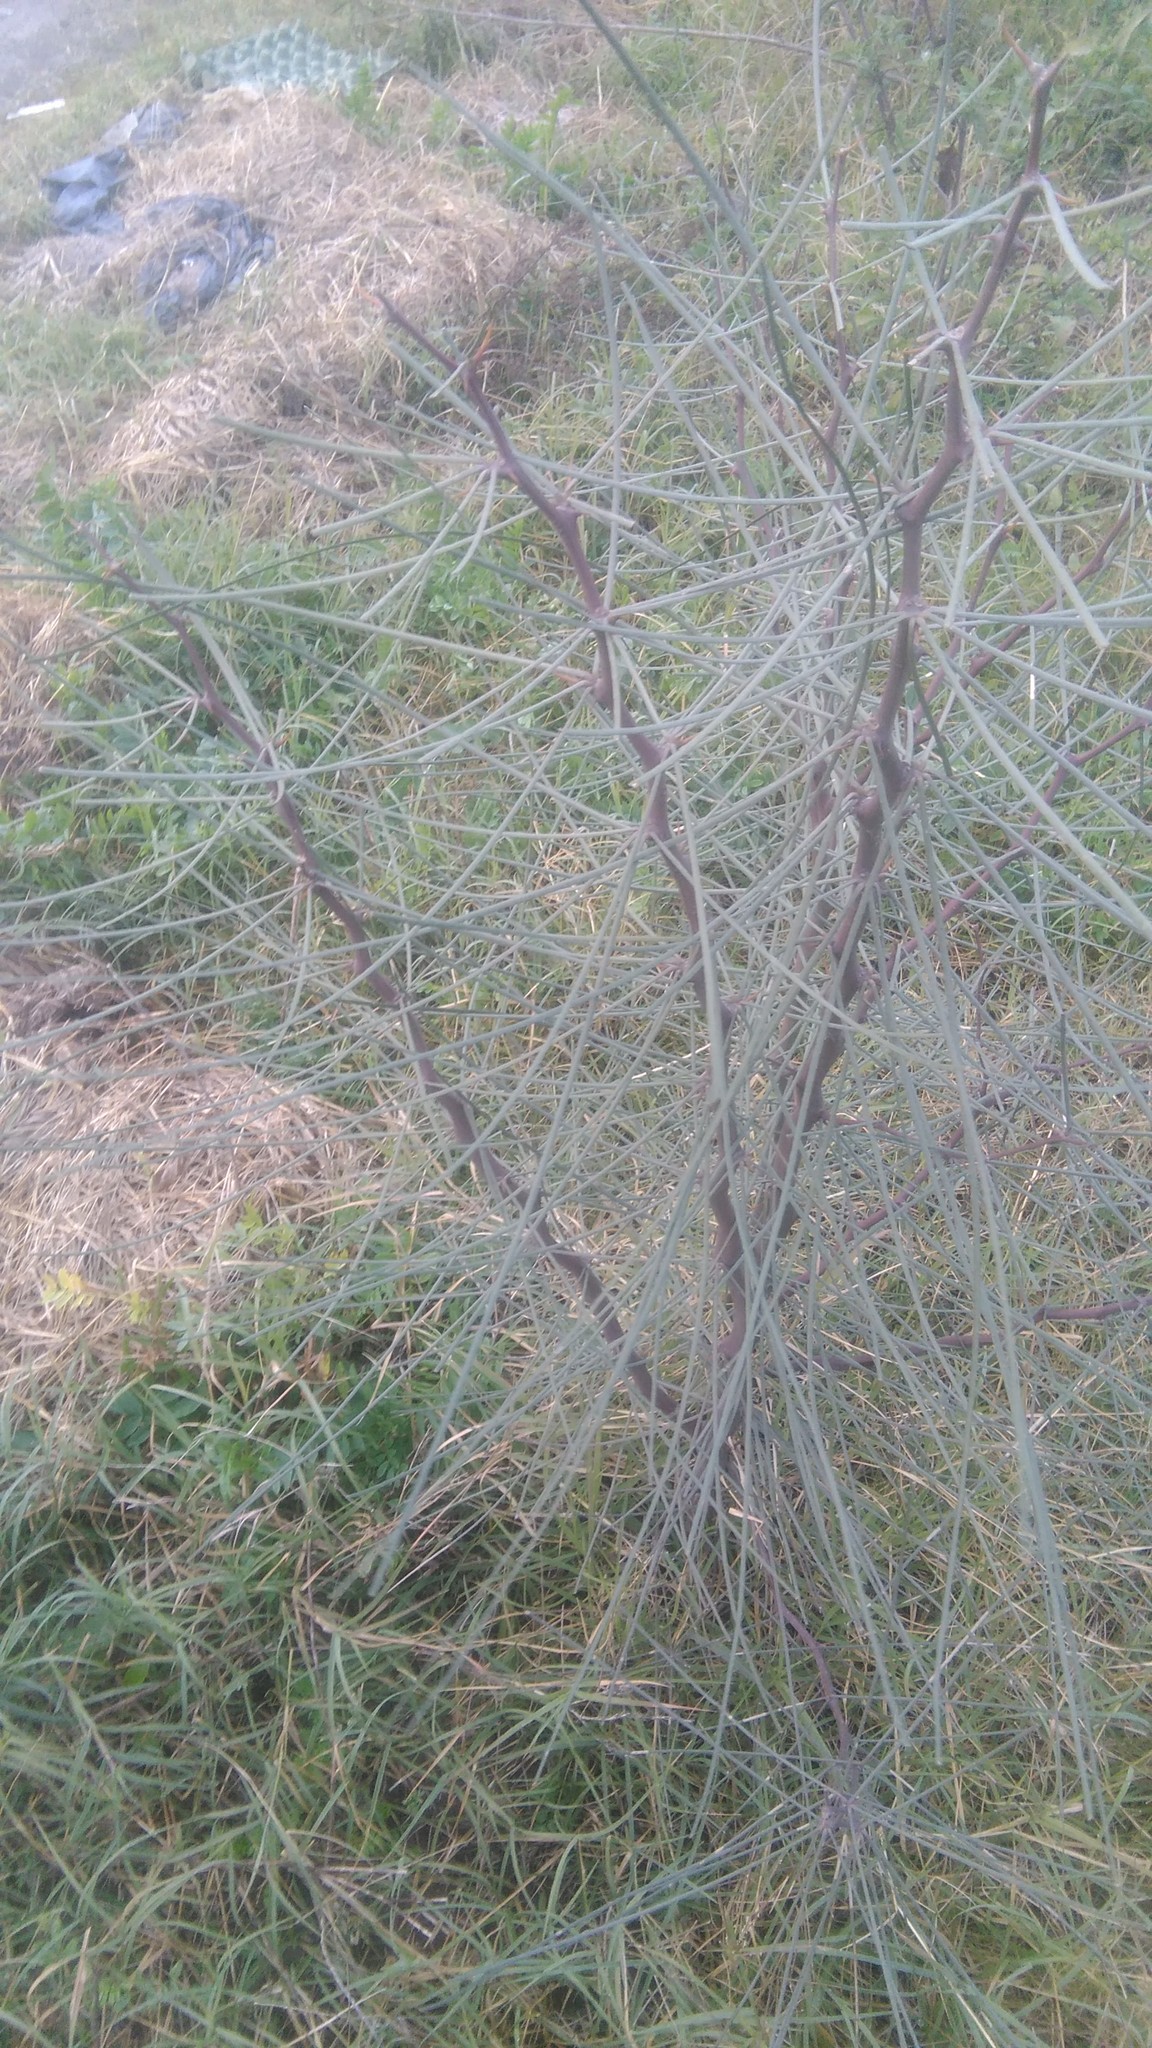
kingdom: Plantae
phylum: Tracheophyta
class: Magnoliopsida
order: Fabales
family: Fabaceae
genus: Parkinsonia
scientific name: Parkinsonia aculeata
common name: Jerusalem thorn
